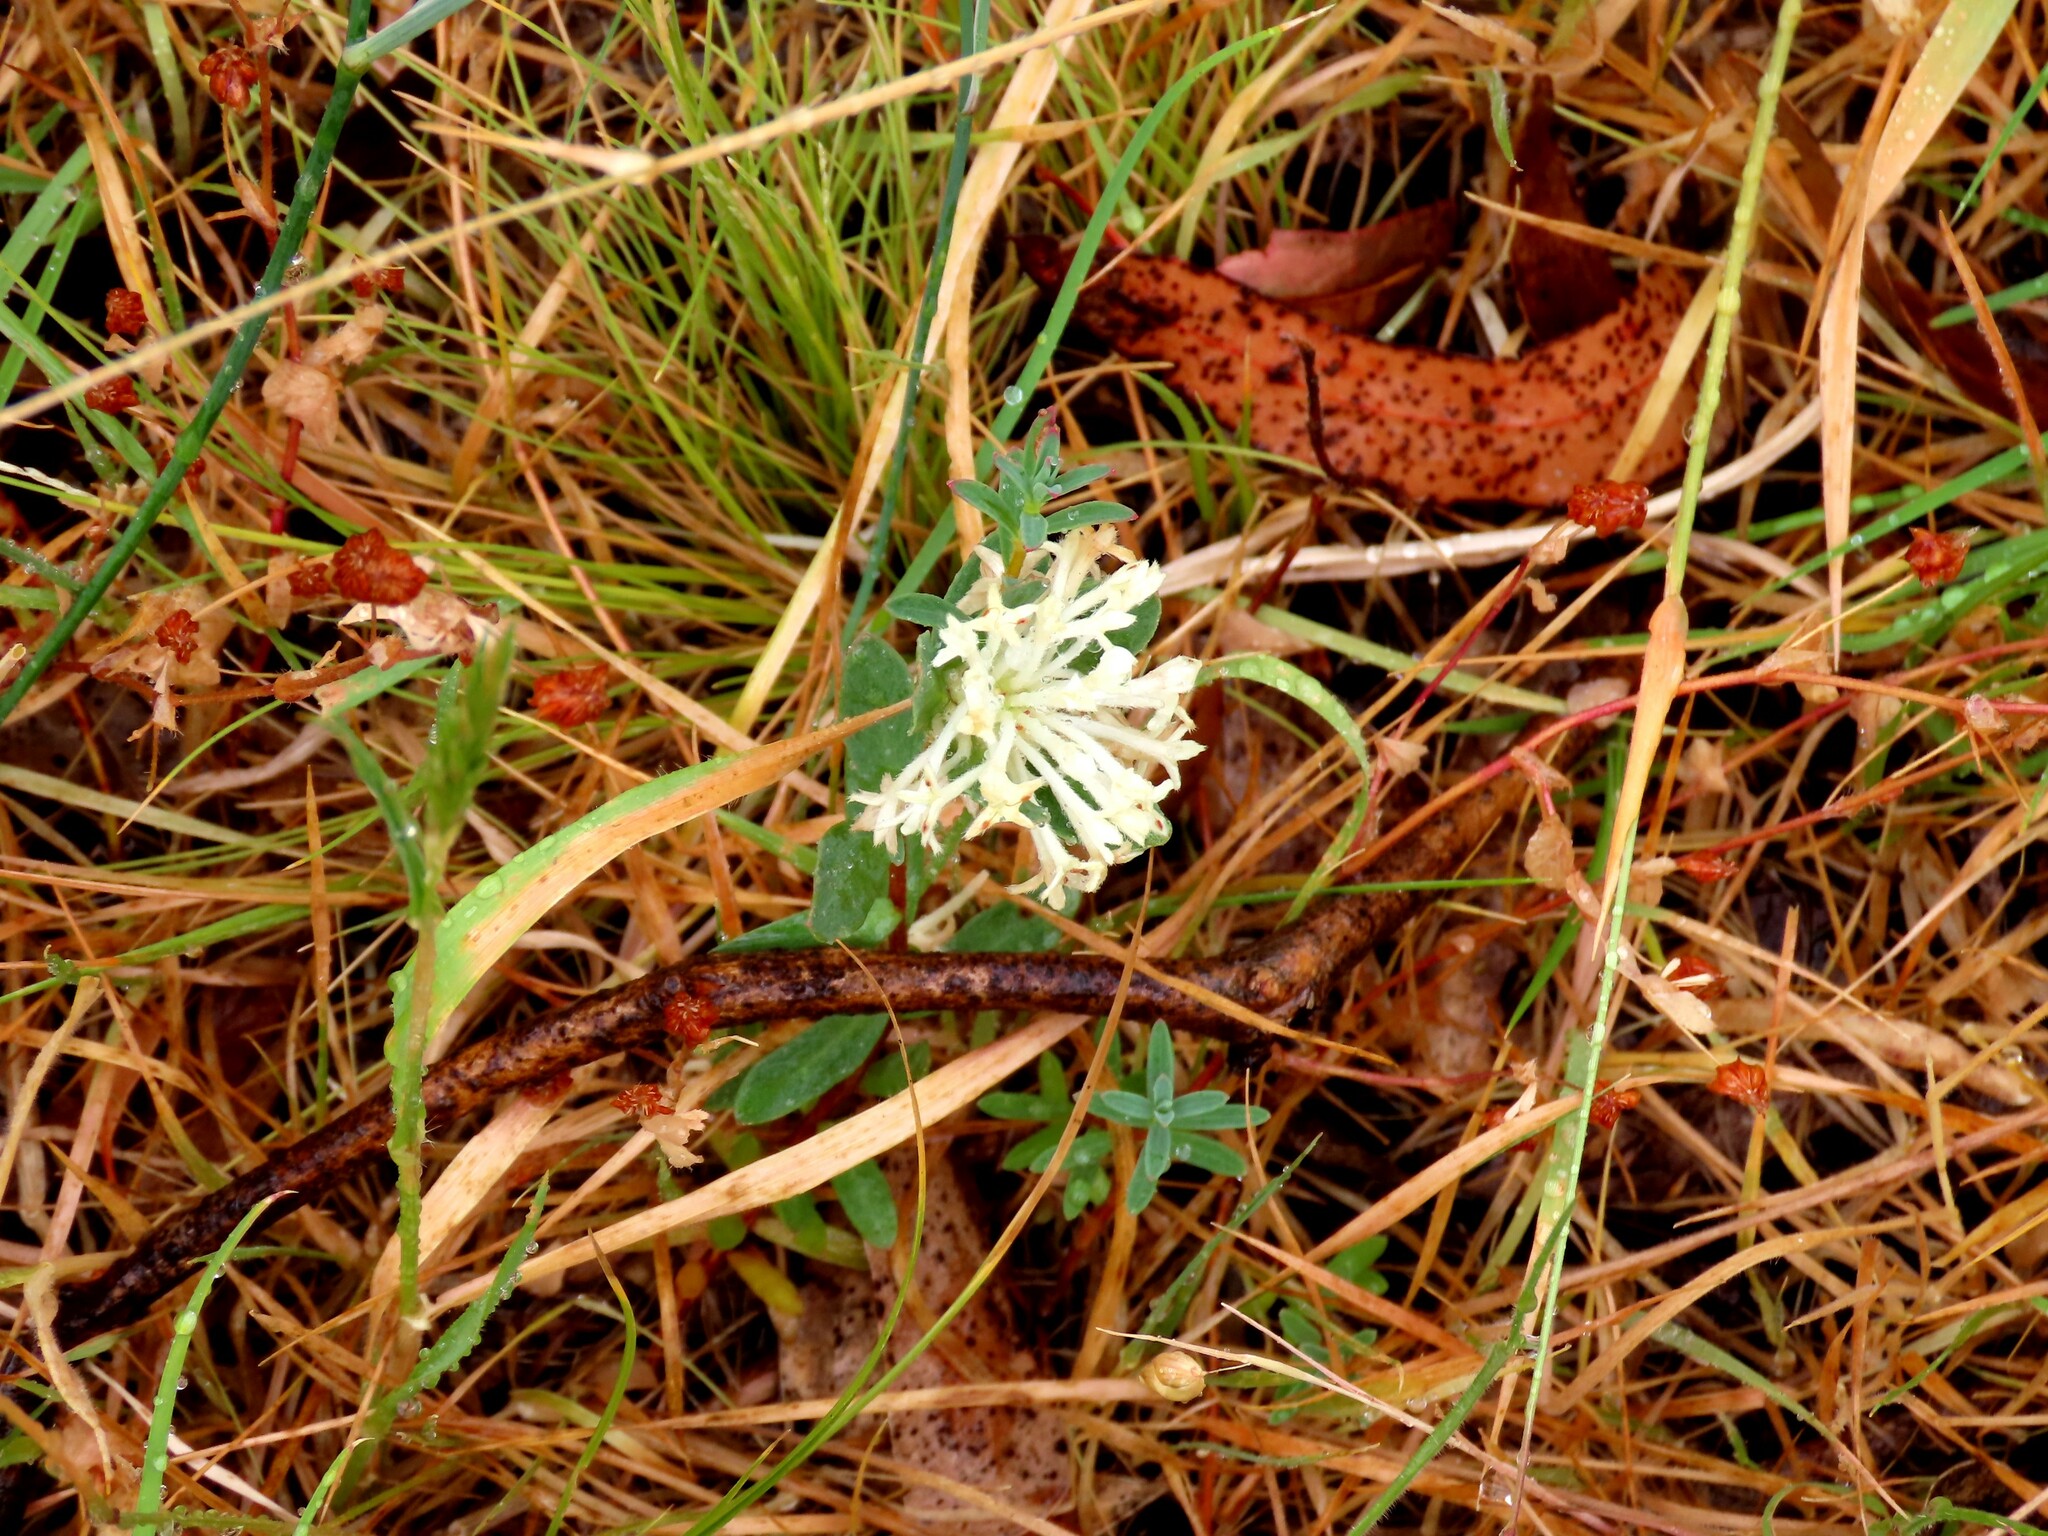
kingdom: Plantae
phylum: Tracheophyta
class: Magnoliopsida
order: Malvales
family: Thymelaeaceae
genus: Pimelea
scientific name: Pimelea humilis
